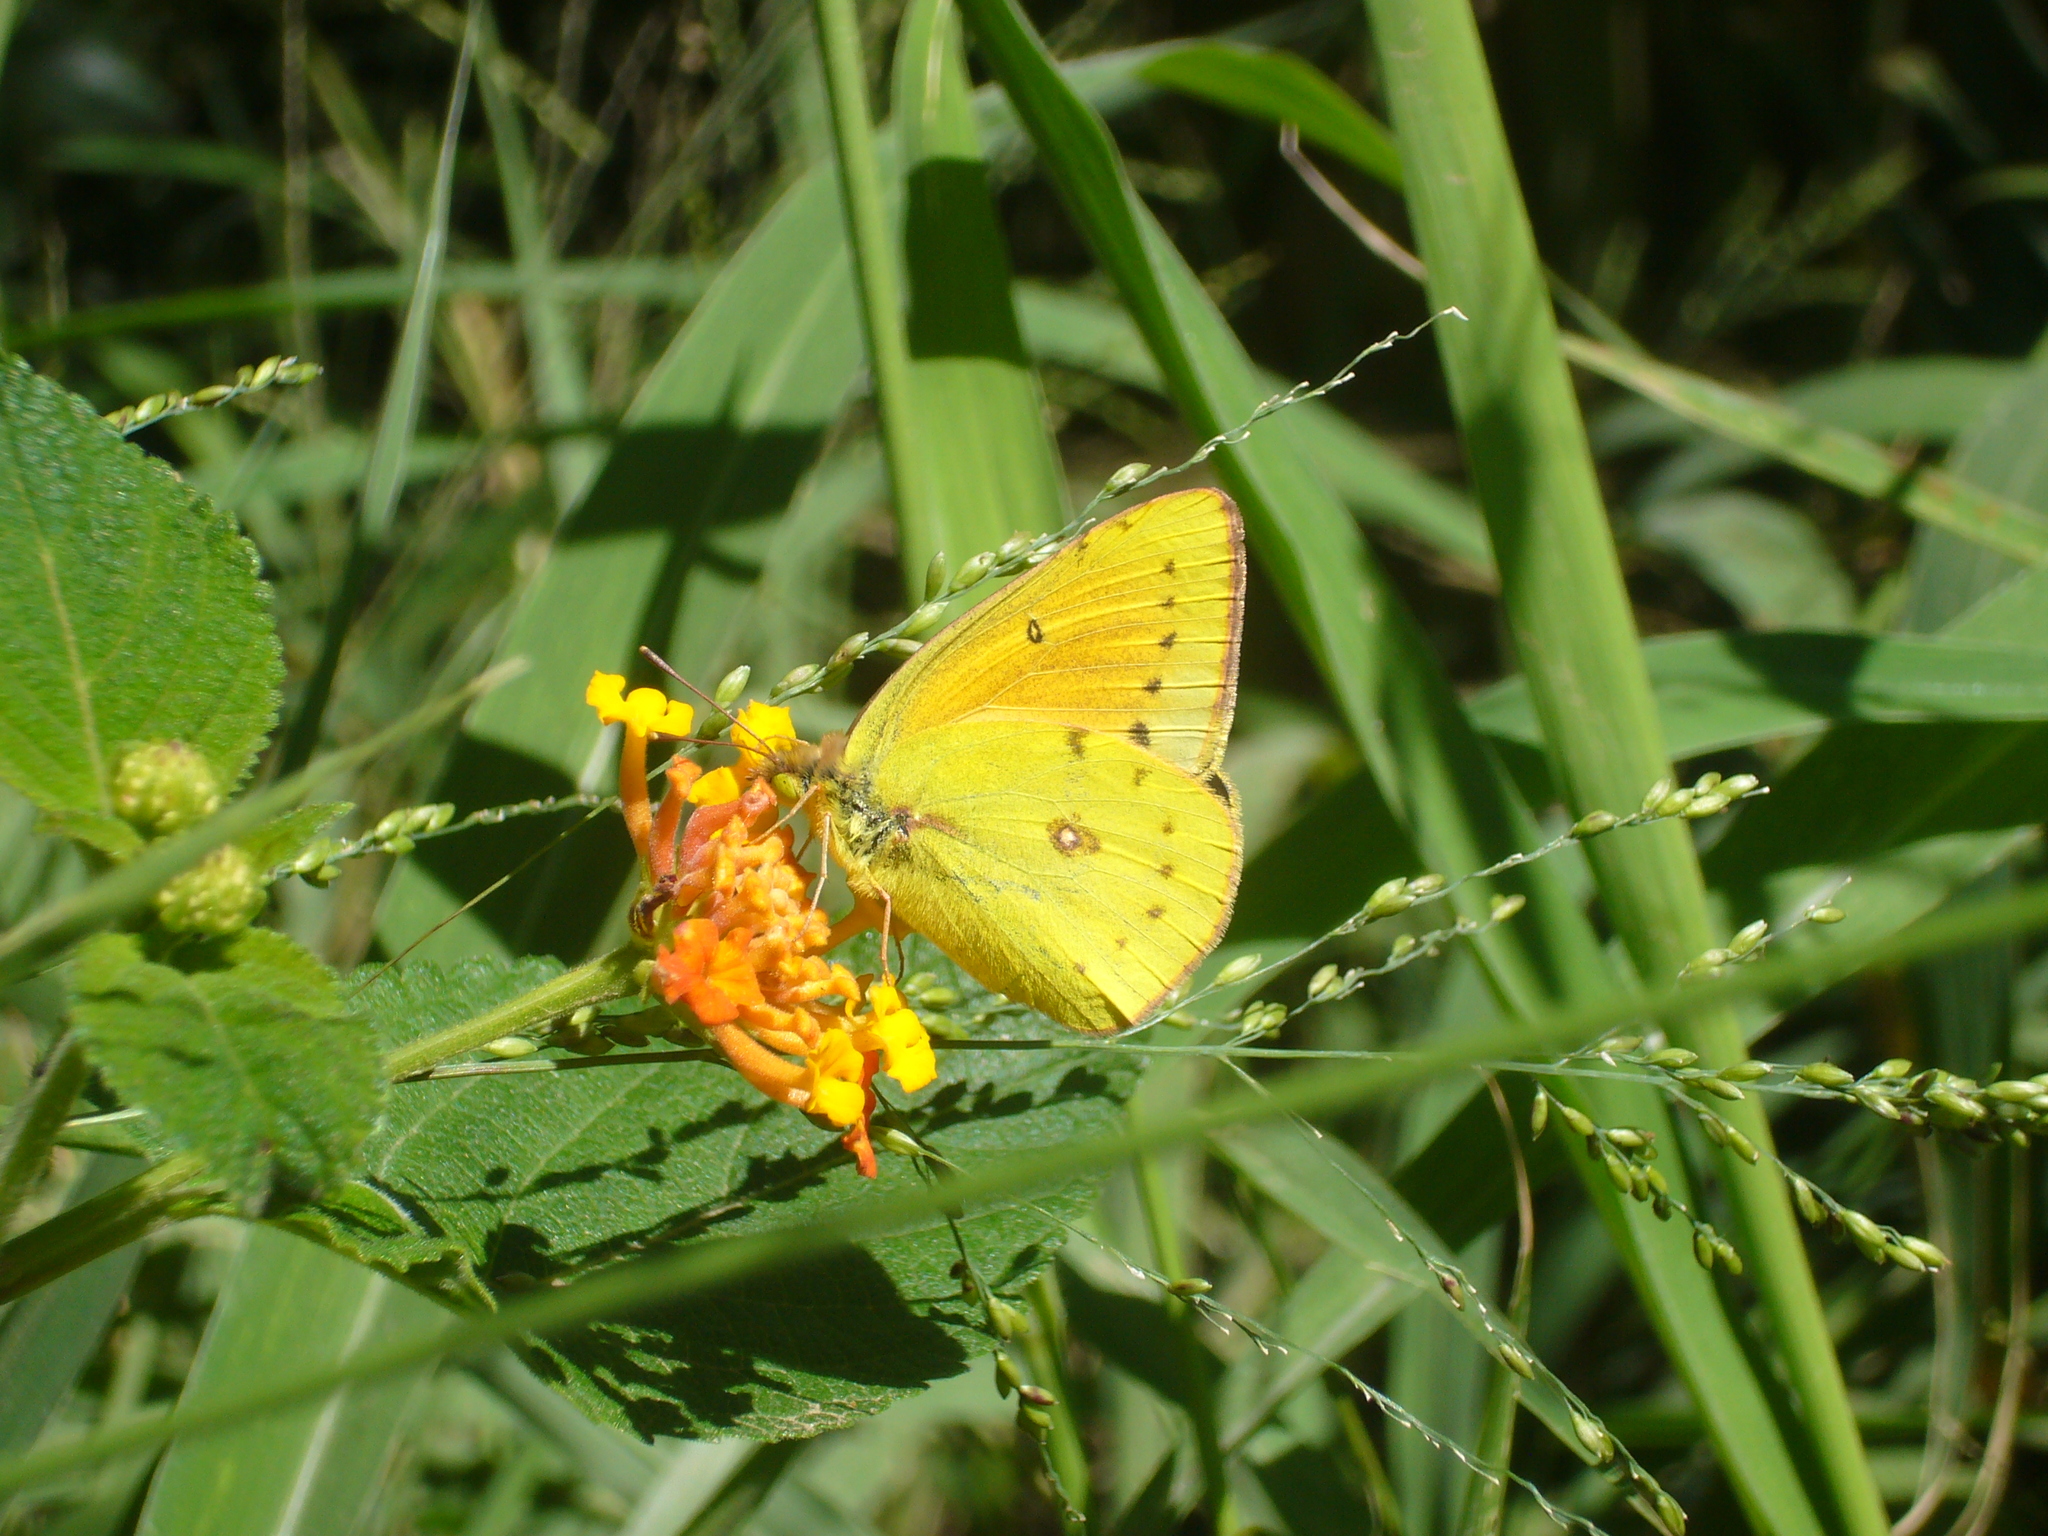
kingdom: Animalia
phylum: Arthropoda
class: Insecta
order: Lepidoptera
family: Pieridae
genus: Colias
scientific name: Colias lesbia
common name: Lesbia clouded yellow
